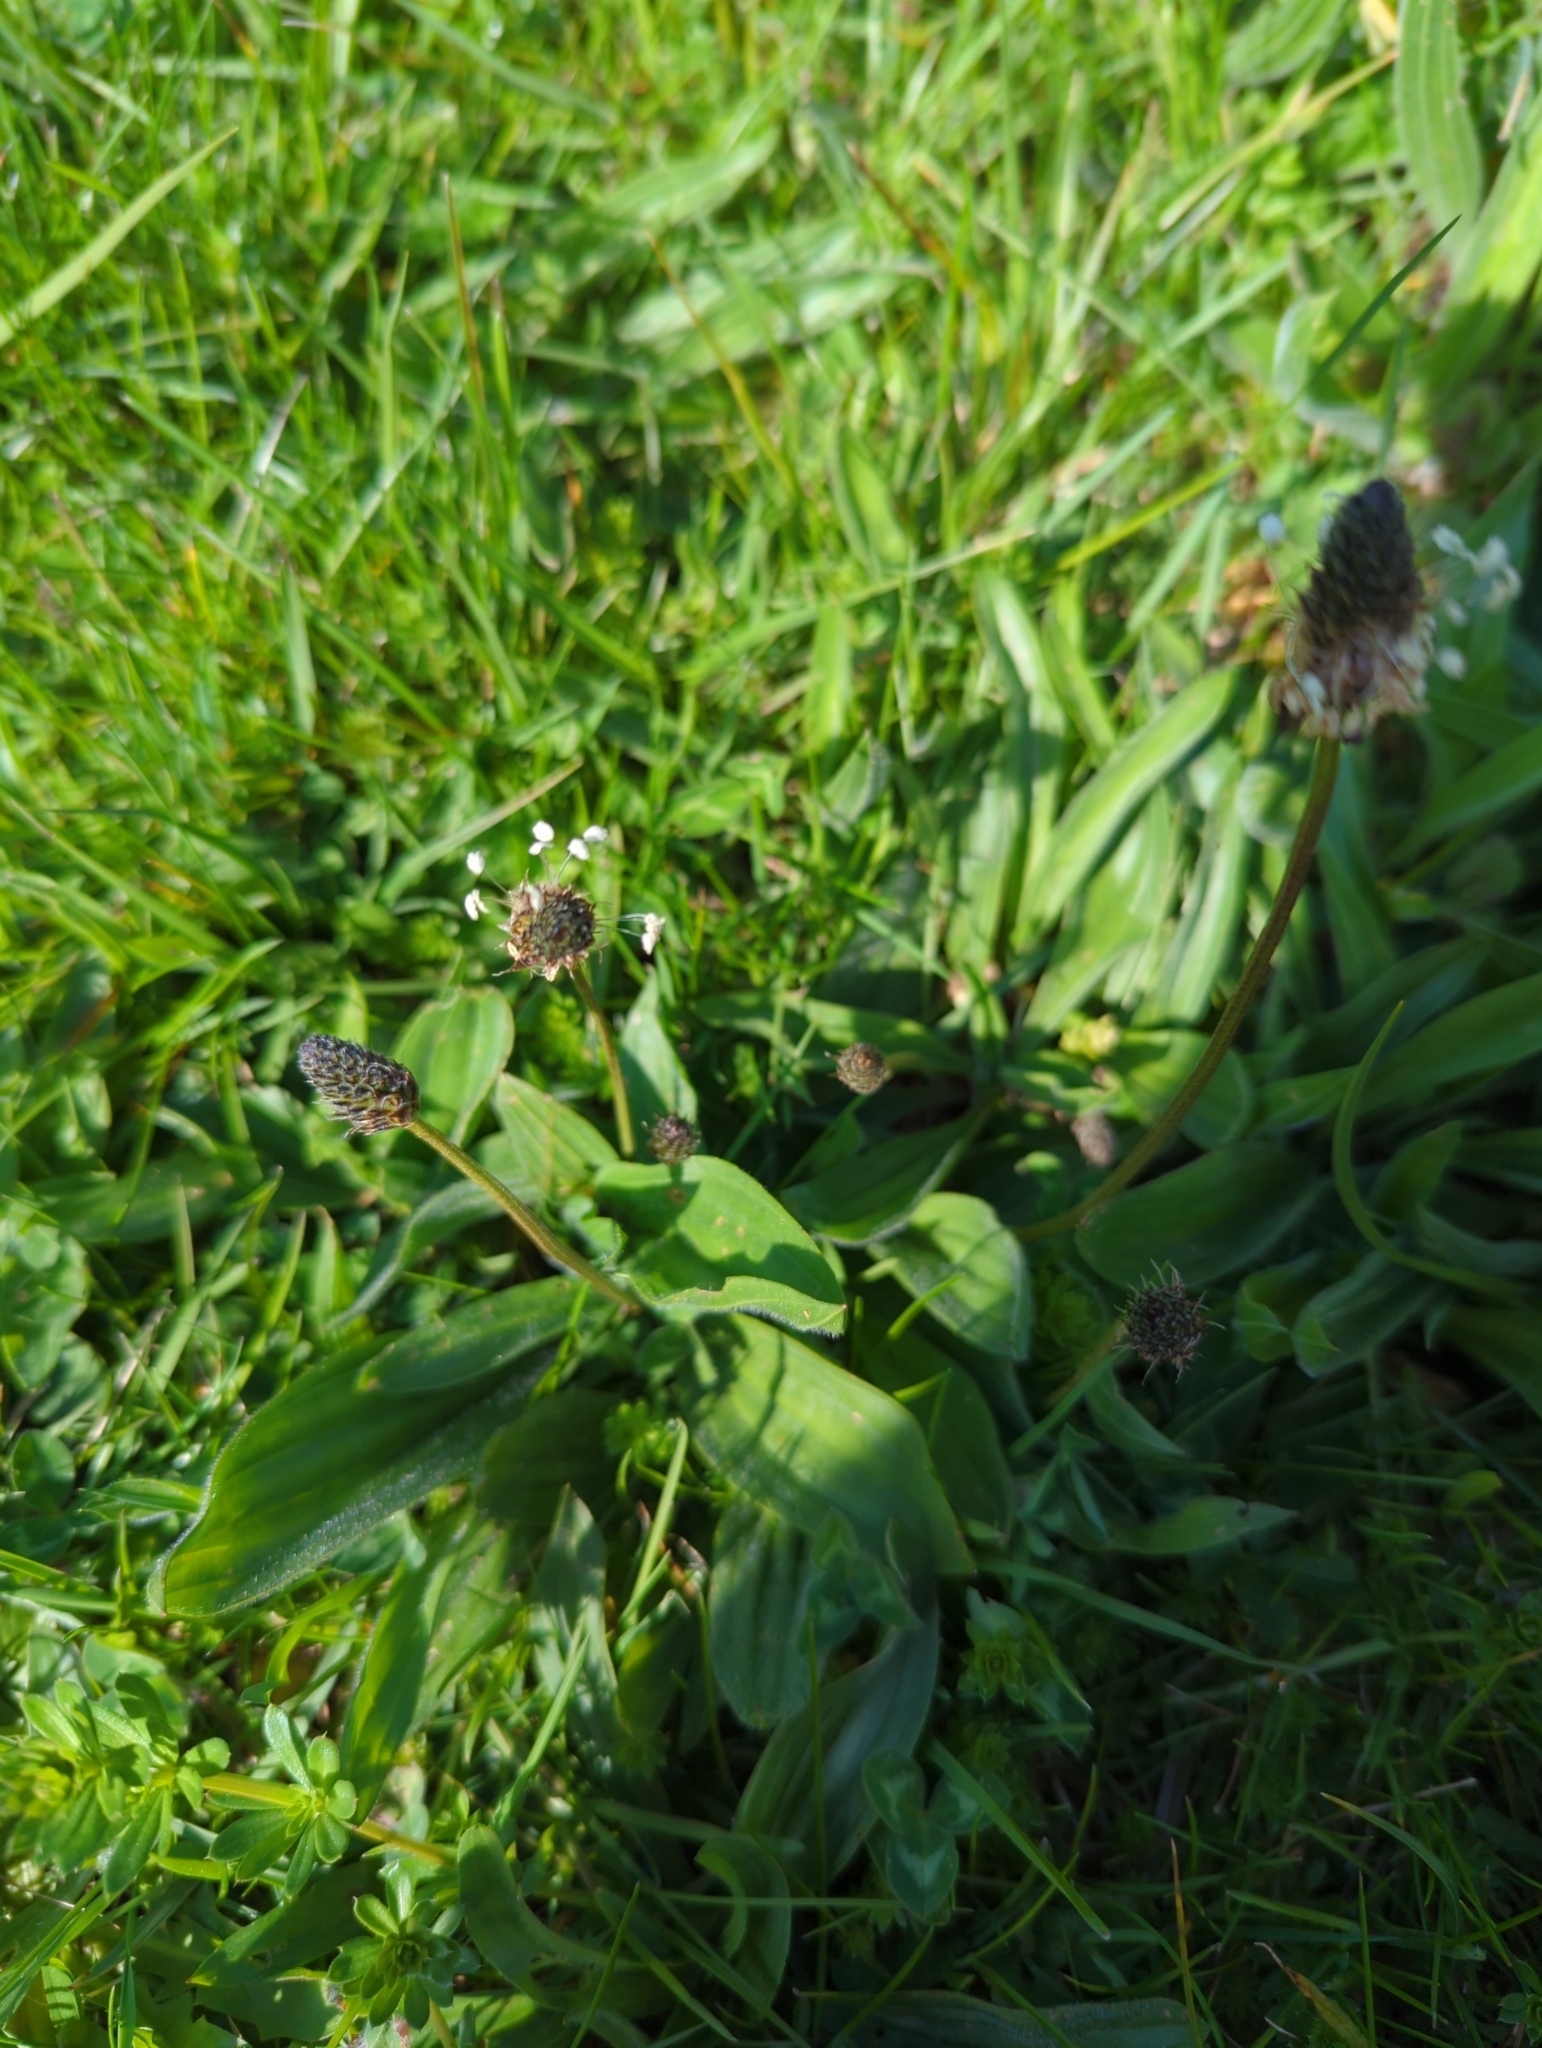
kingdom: Plantae
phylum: Tracheophyta
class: Magnoliopsida
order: Lamiales
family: Plantaginaceae
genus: Plantago
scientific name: Plantago lanceolata
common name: Ribwort plantain
